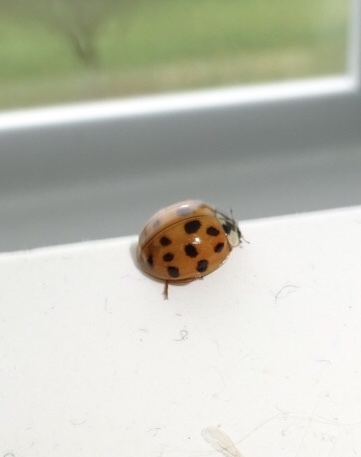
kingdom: Animalia
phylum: Arthropoda
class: Insecta
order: Coleoptera
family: Coccinellidae
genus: Harmonia
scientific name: Harmonia axyridis
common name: Harlequin ladybird
